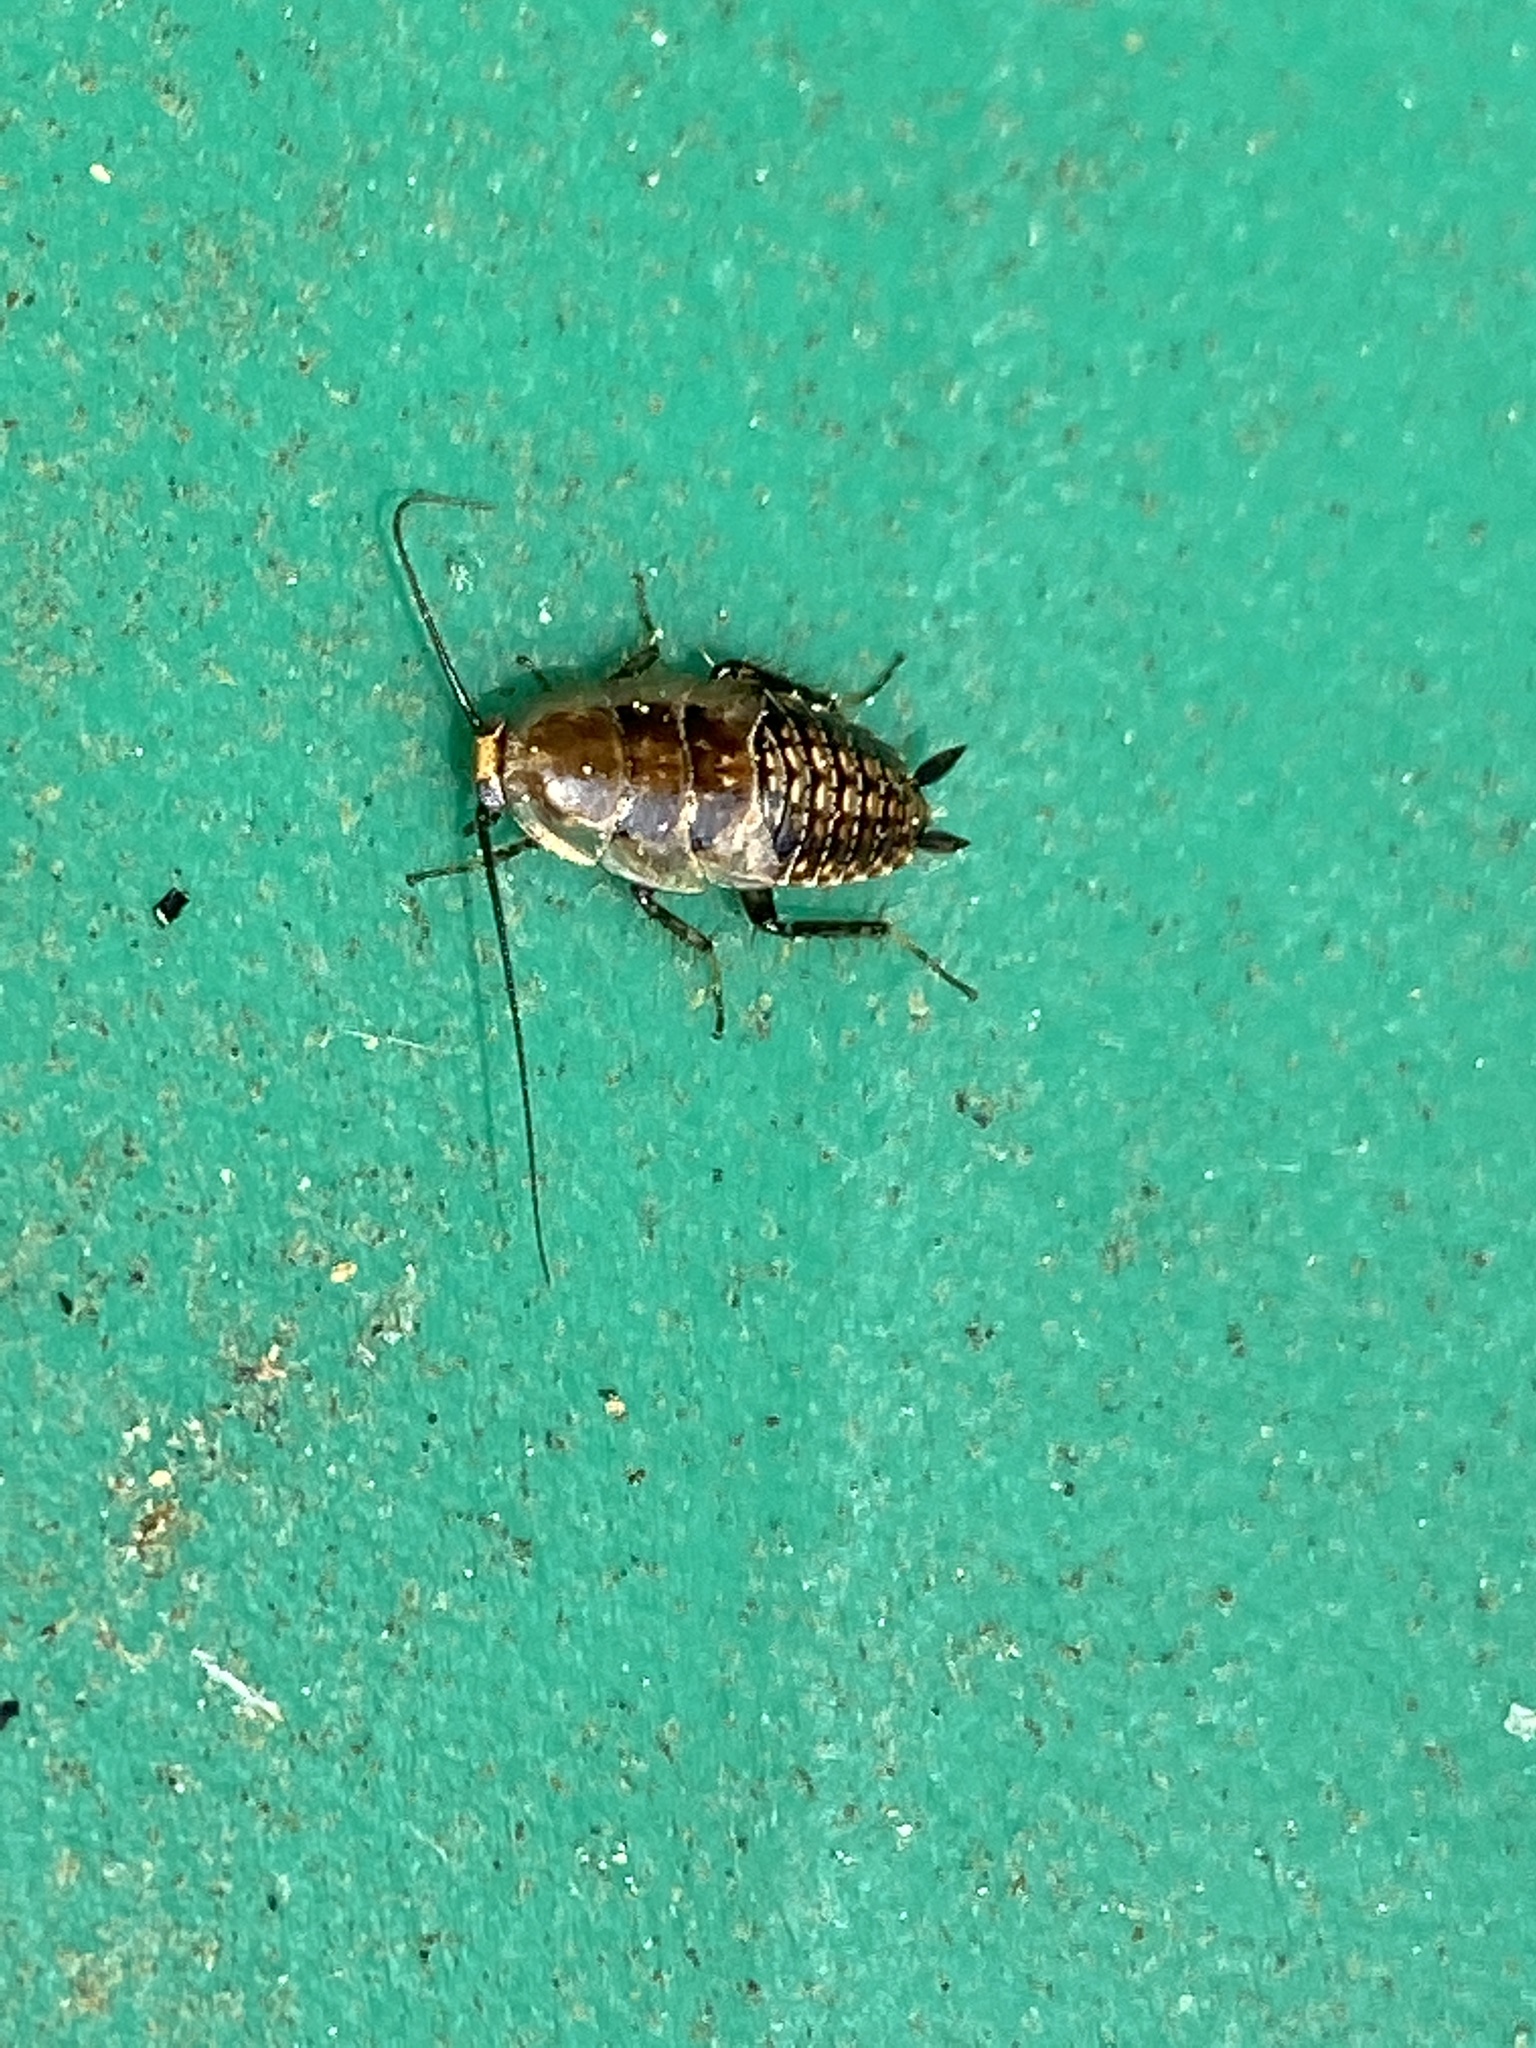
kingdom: Animalia
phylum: Arthropoda
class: Insecta
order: Blattodea
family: Ectobiidae
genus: Ectobius
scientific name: Ectobius lapponicus
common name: Dusky cockroach
